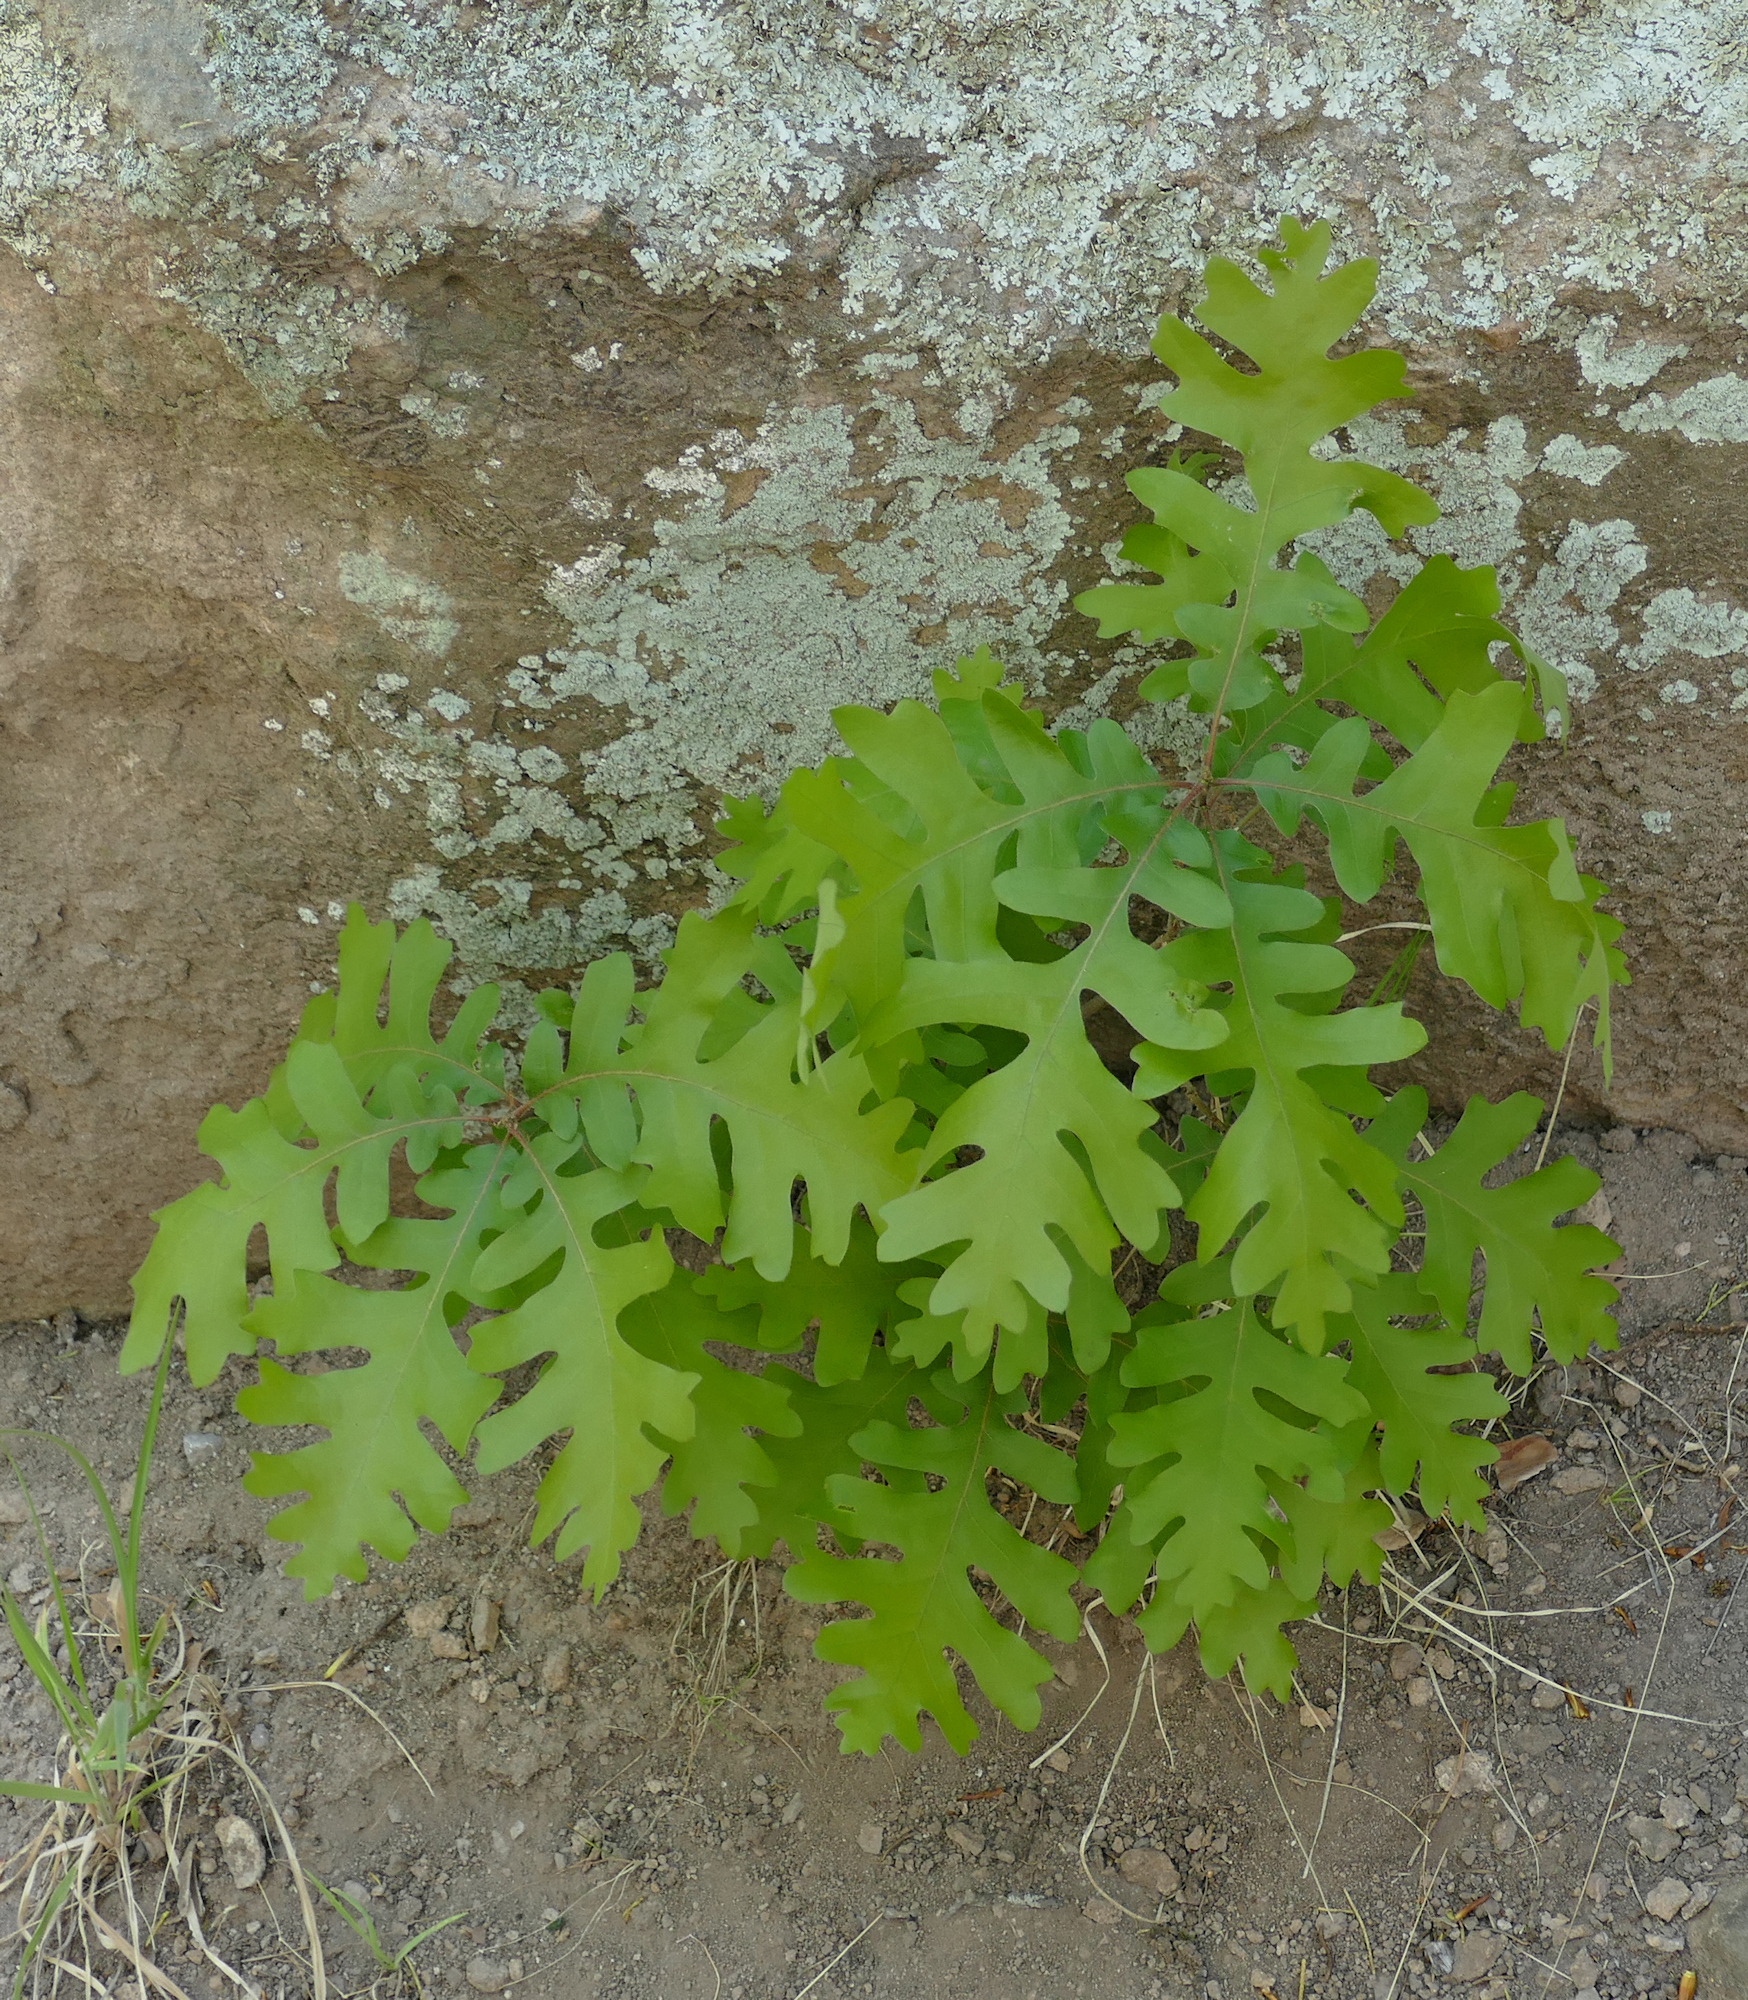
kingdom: Plantae
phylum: Tracheophyta
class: Magnoliopsida
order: Fagales
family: Fagaceae
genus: Quercus
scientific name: Quercus gambelii
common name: Gambel oak
